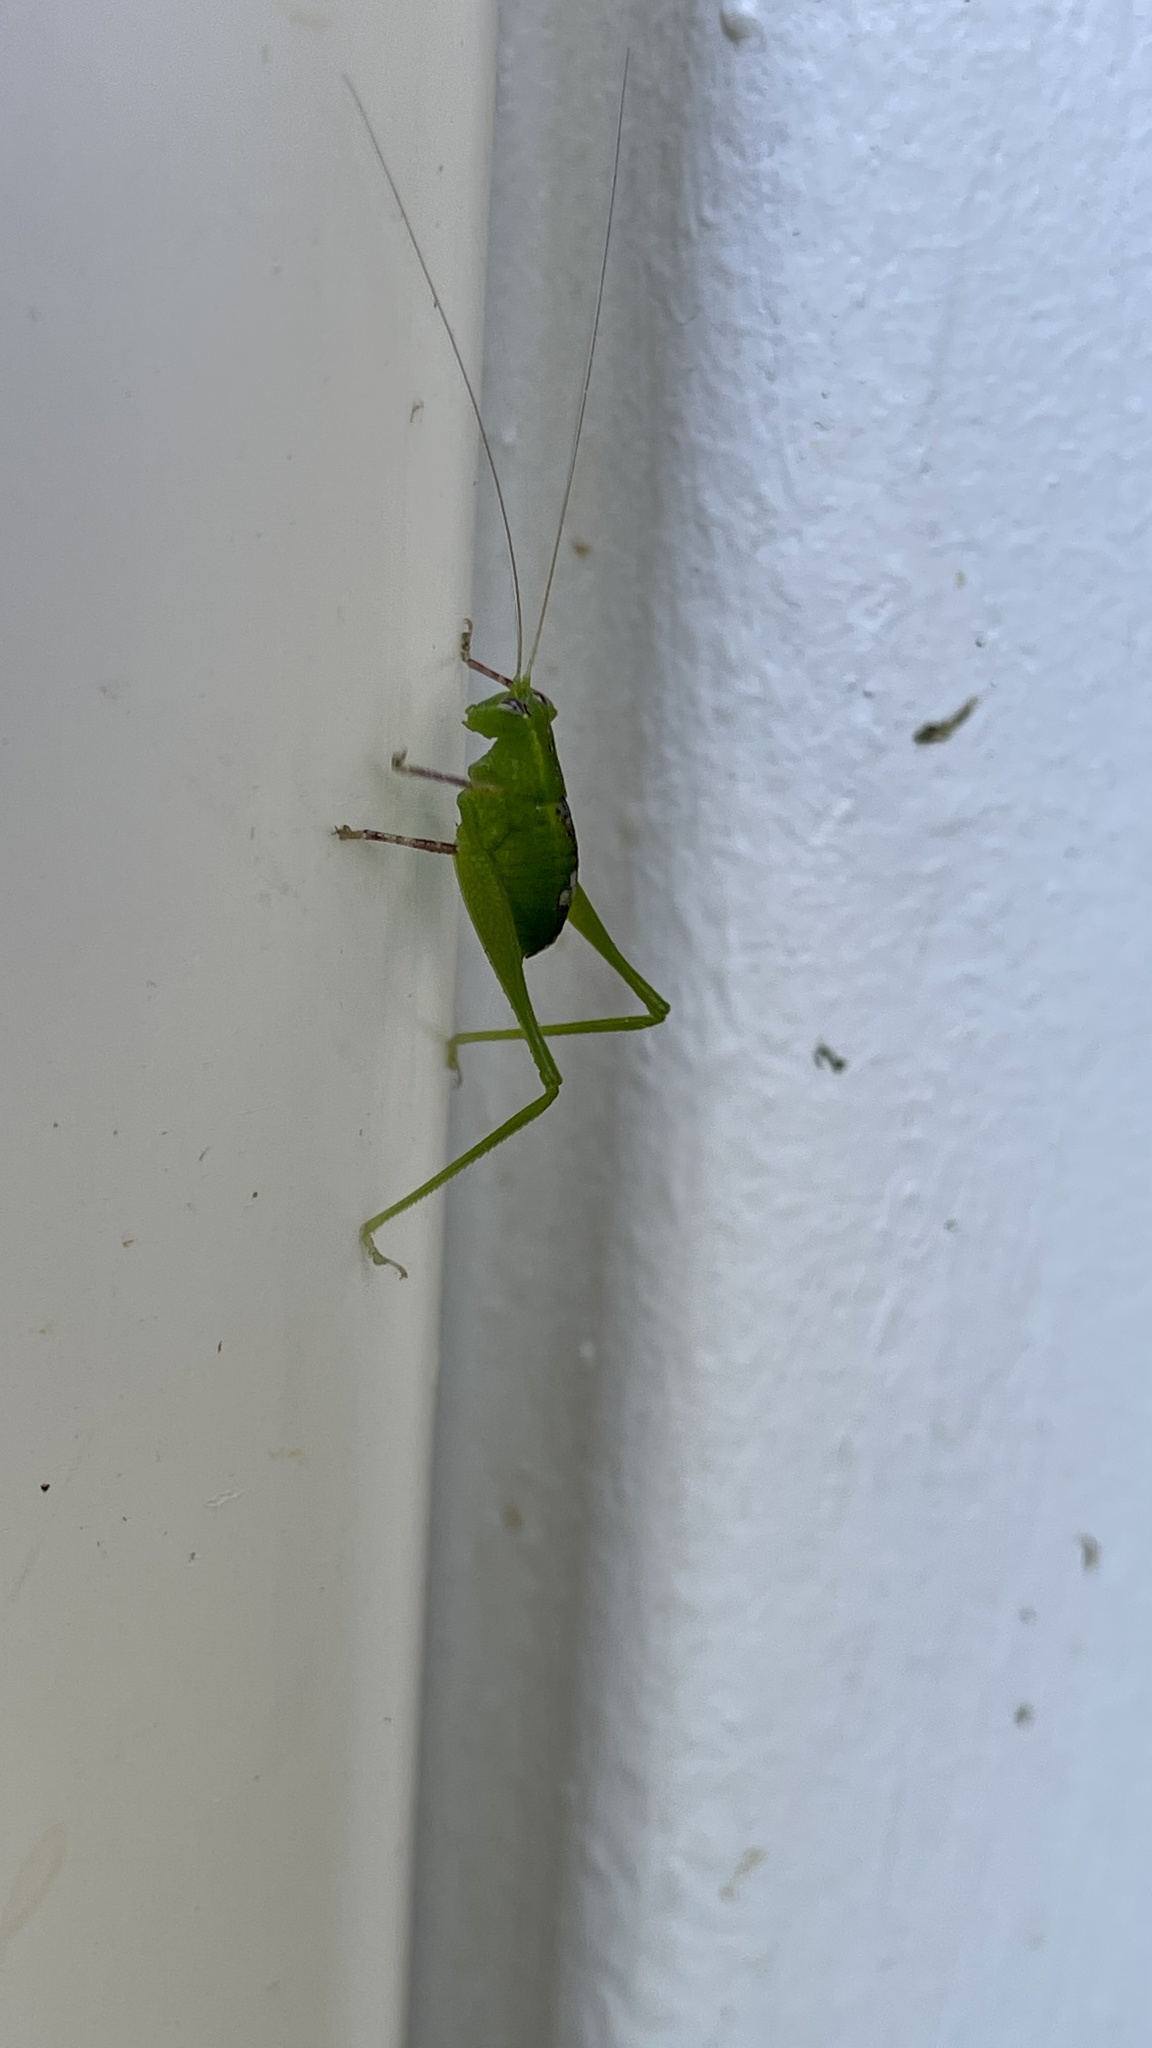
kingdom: Animalia
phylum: Arthropoda
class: Insecta
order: Orthoptera
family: Tettigoniidae
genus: Caedicia
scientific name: Caedicia simplex
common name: Common garden katydid
